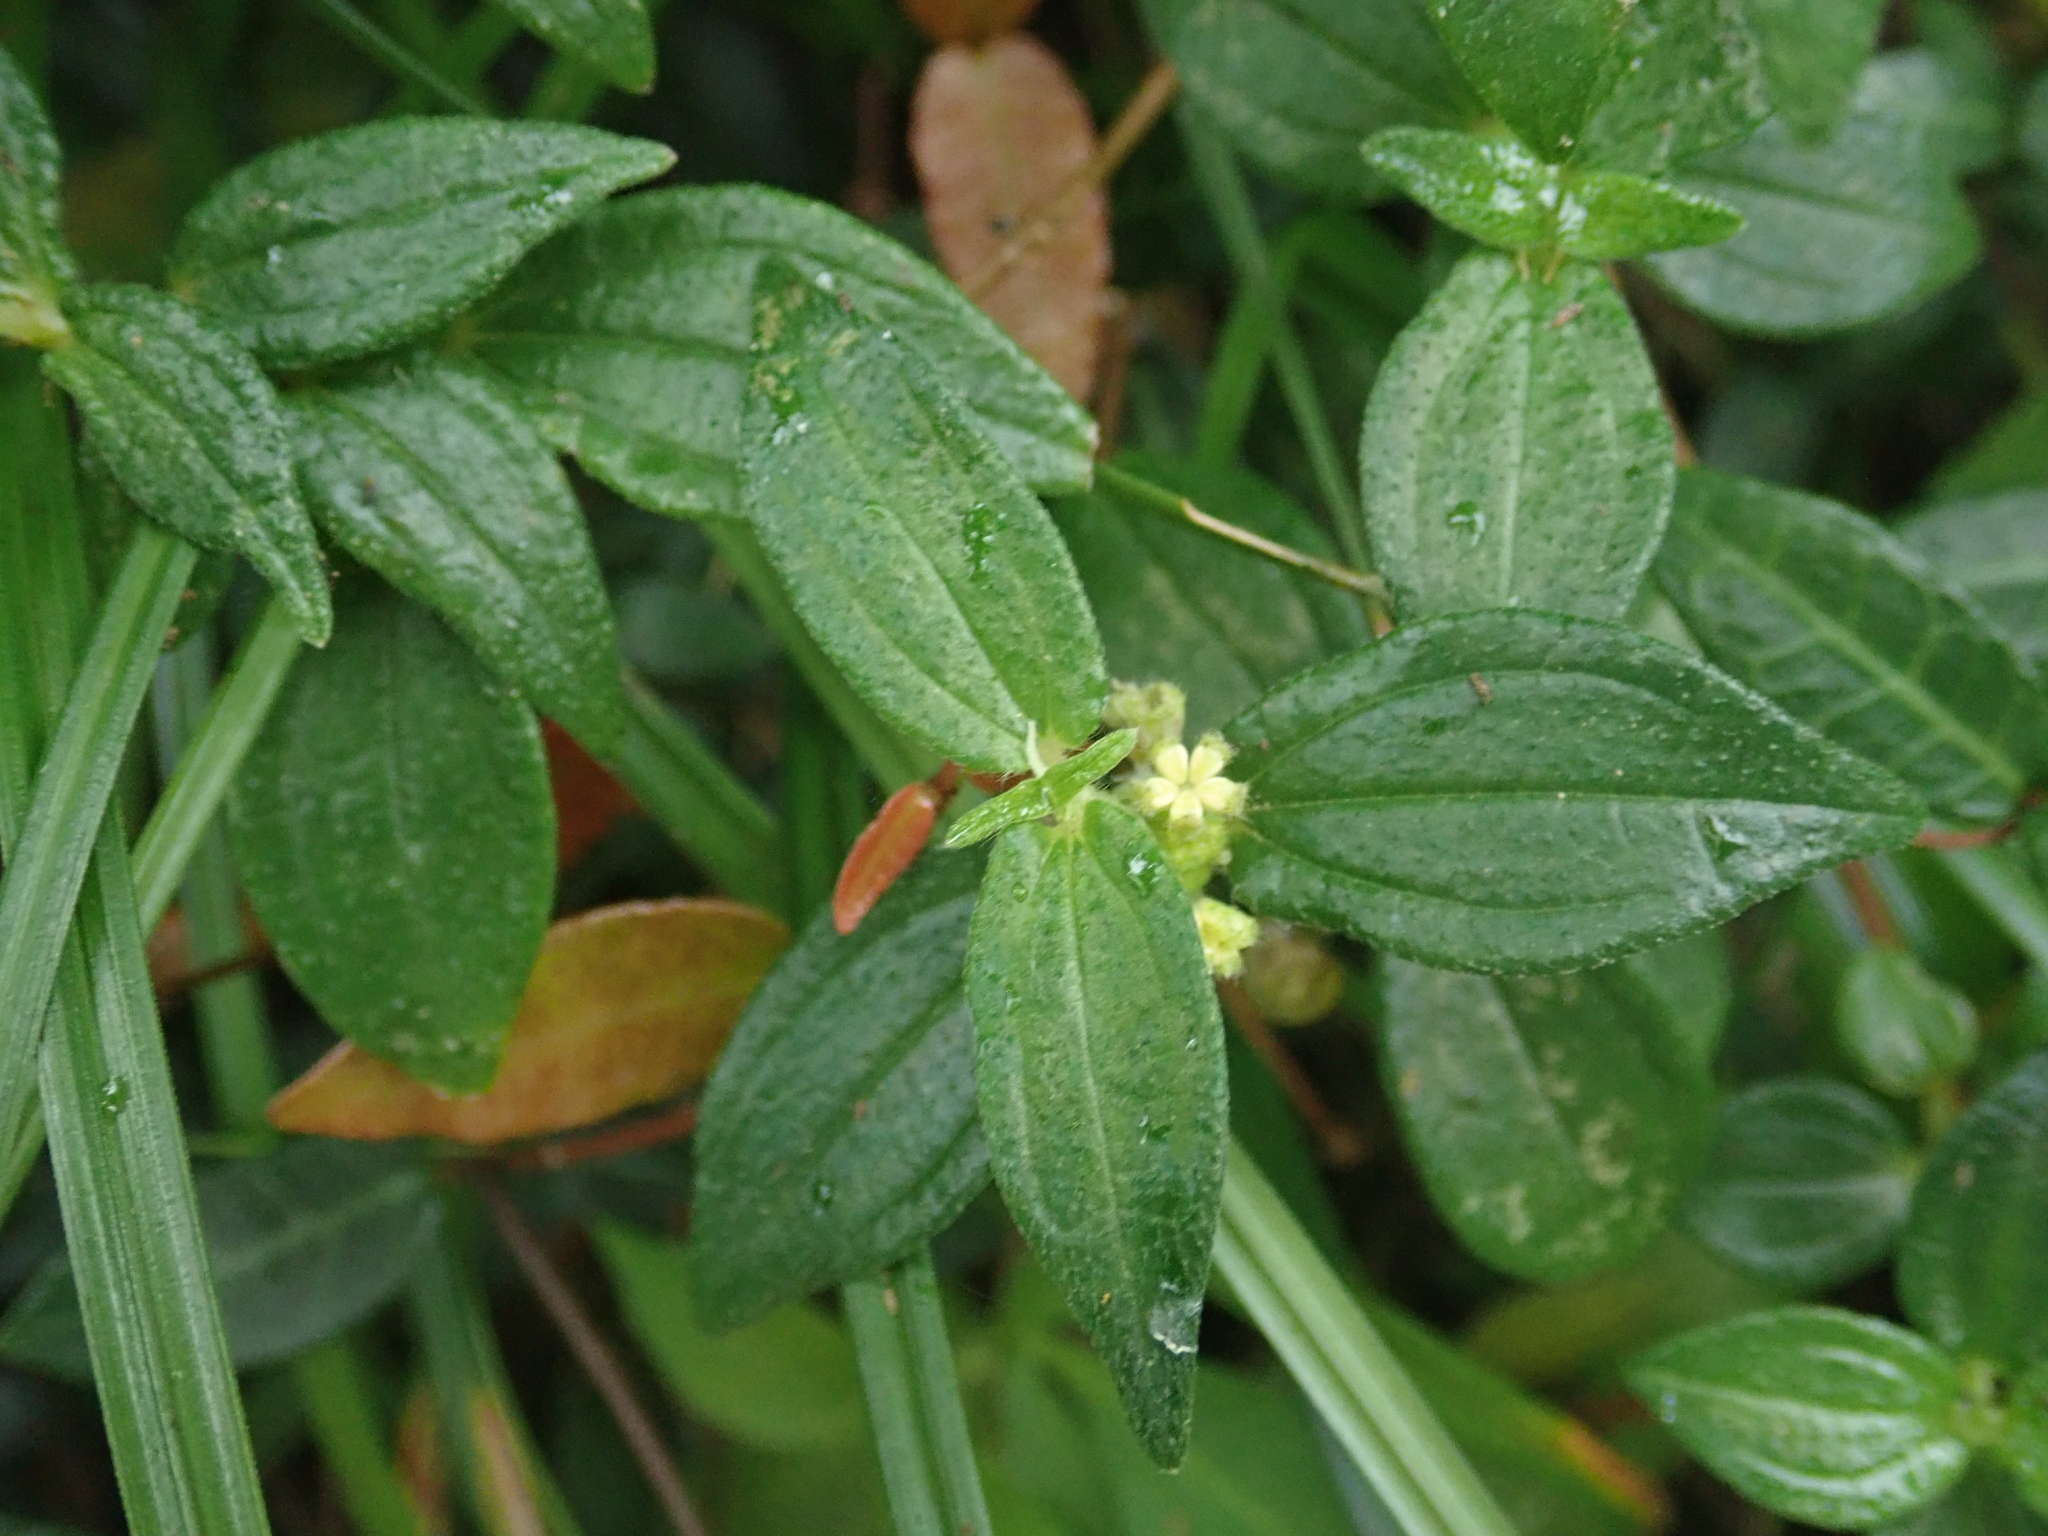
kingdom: Plantae
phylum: Tracheophyta
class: Magnoliopsida
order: Rosales
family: Urticaceae
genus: Gonostegia
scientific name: Gonostegia triandra
